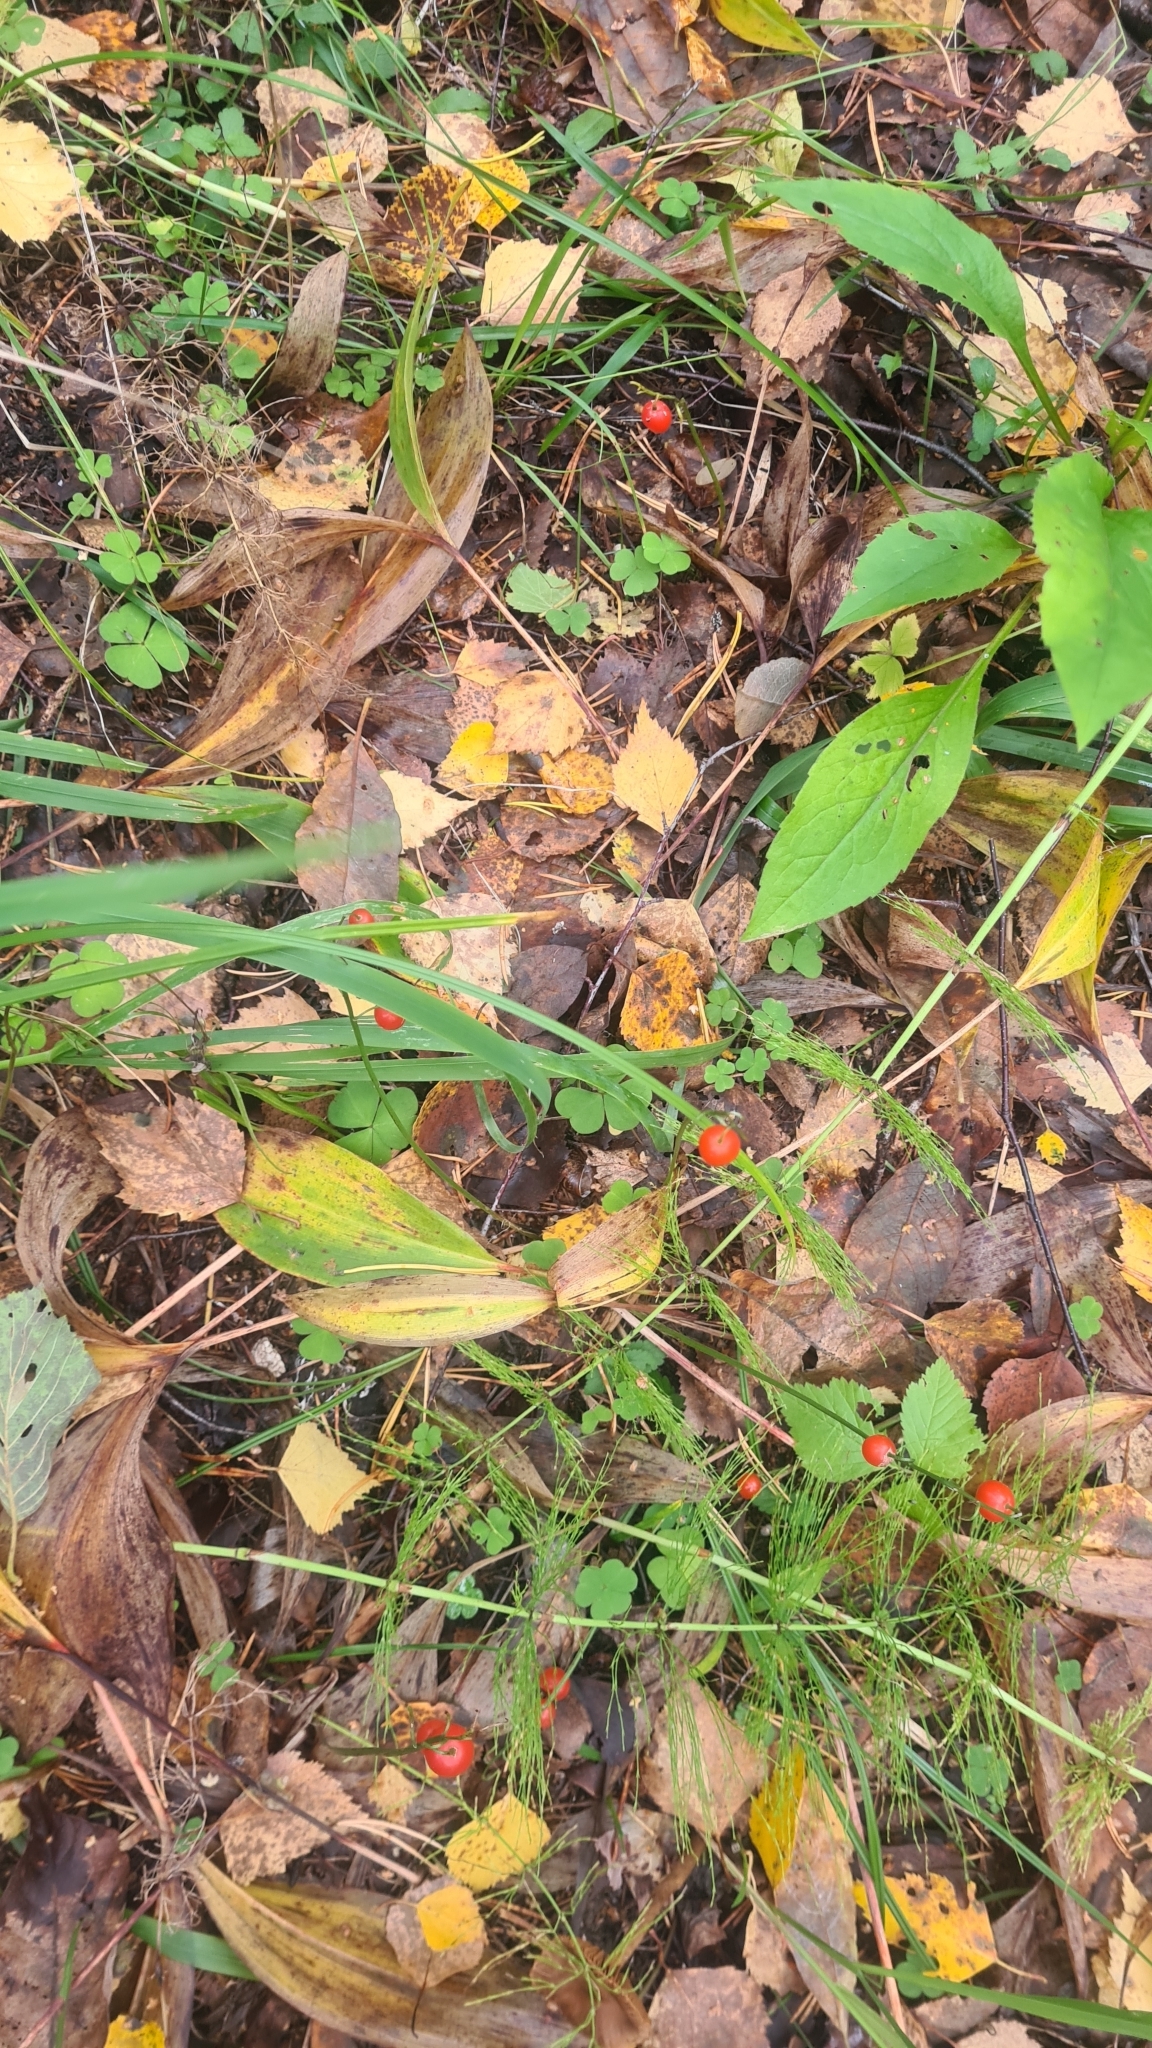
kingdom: Plantae
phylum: Tracheophyta
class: Liliopsida
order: Asparagales
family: Asparagaceae
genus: Convallaria
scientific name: Convallaria majalis
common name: Lily-of-the-valley
